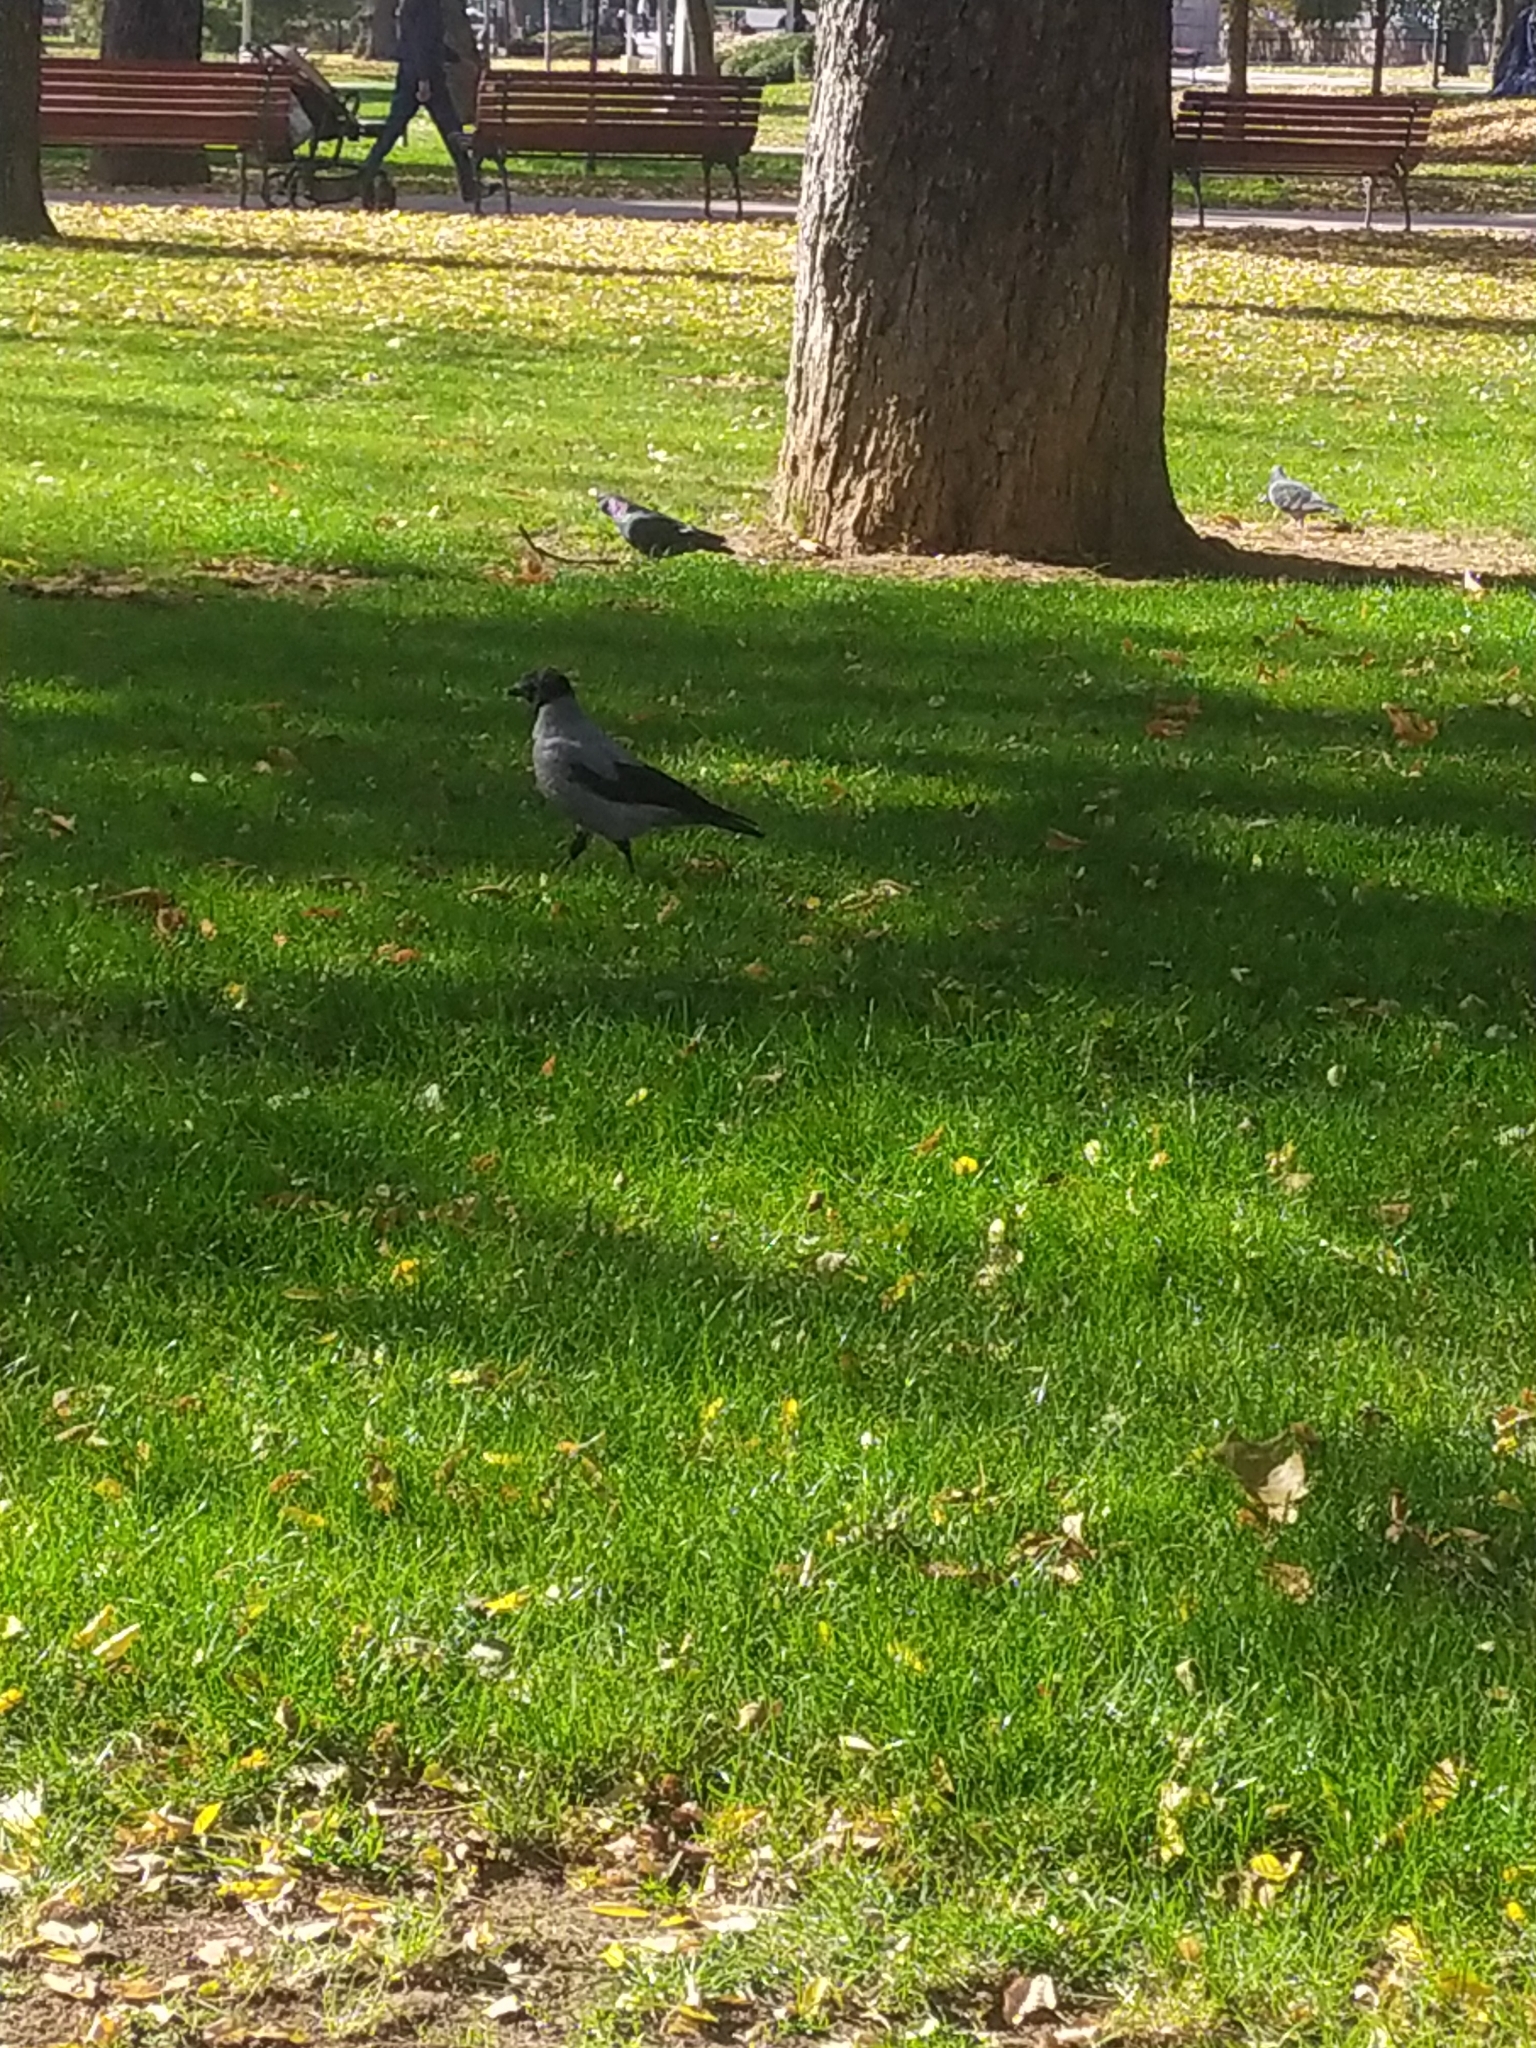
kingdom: Animalia
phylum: Chordata
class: Aves
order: Passeriformes
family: Corvidae
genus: Corvus
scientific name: Corvus cornix
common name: Hooded crow
